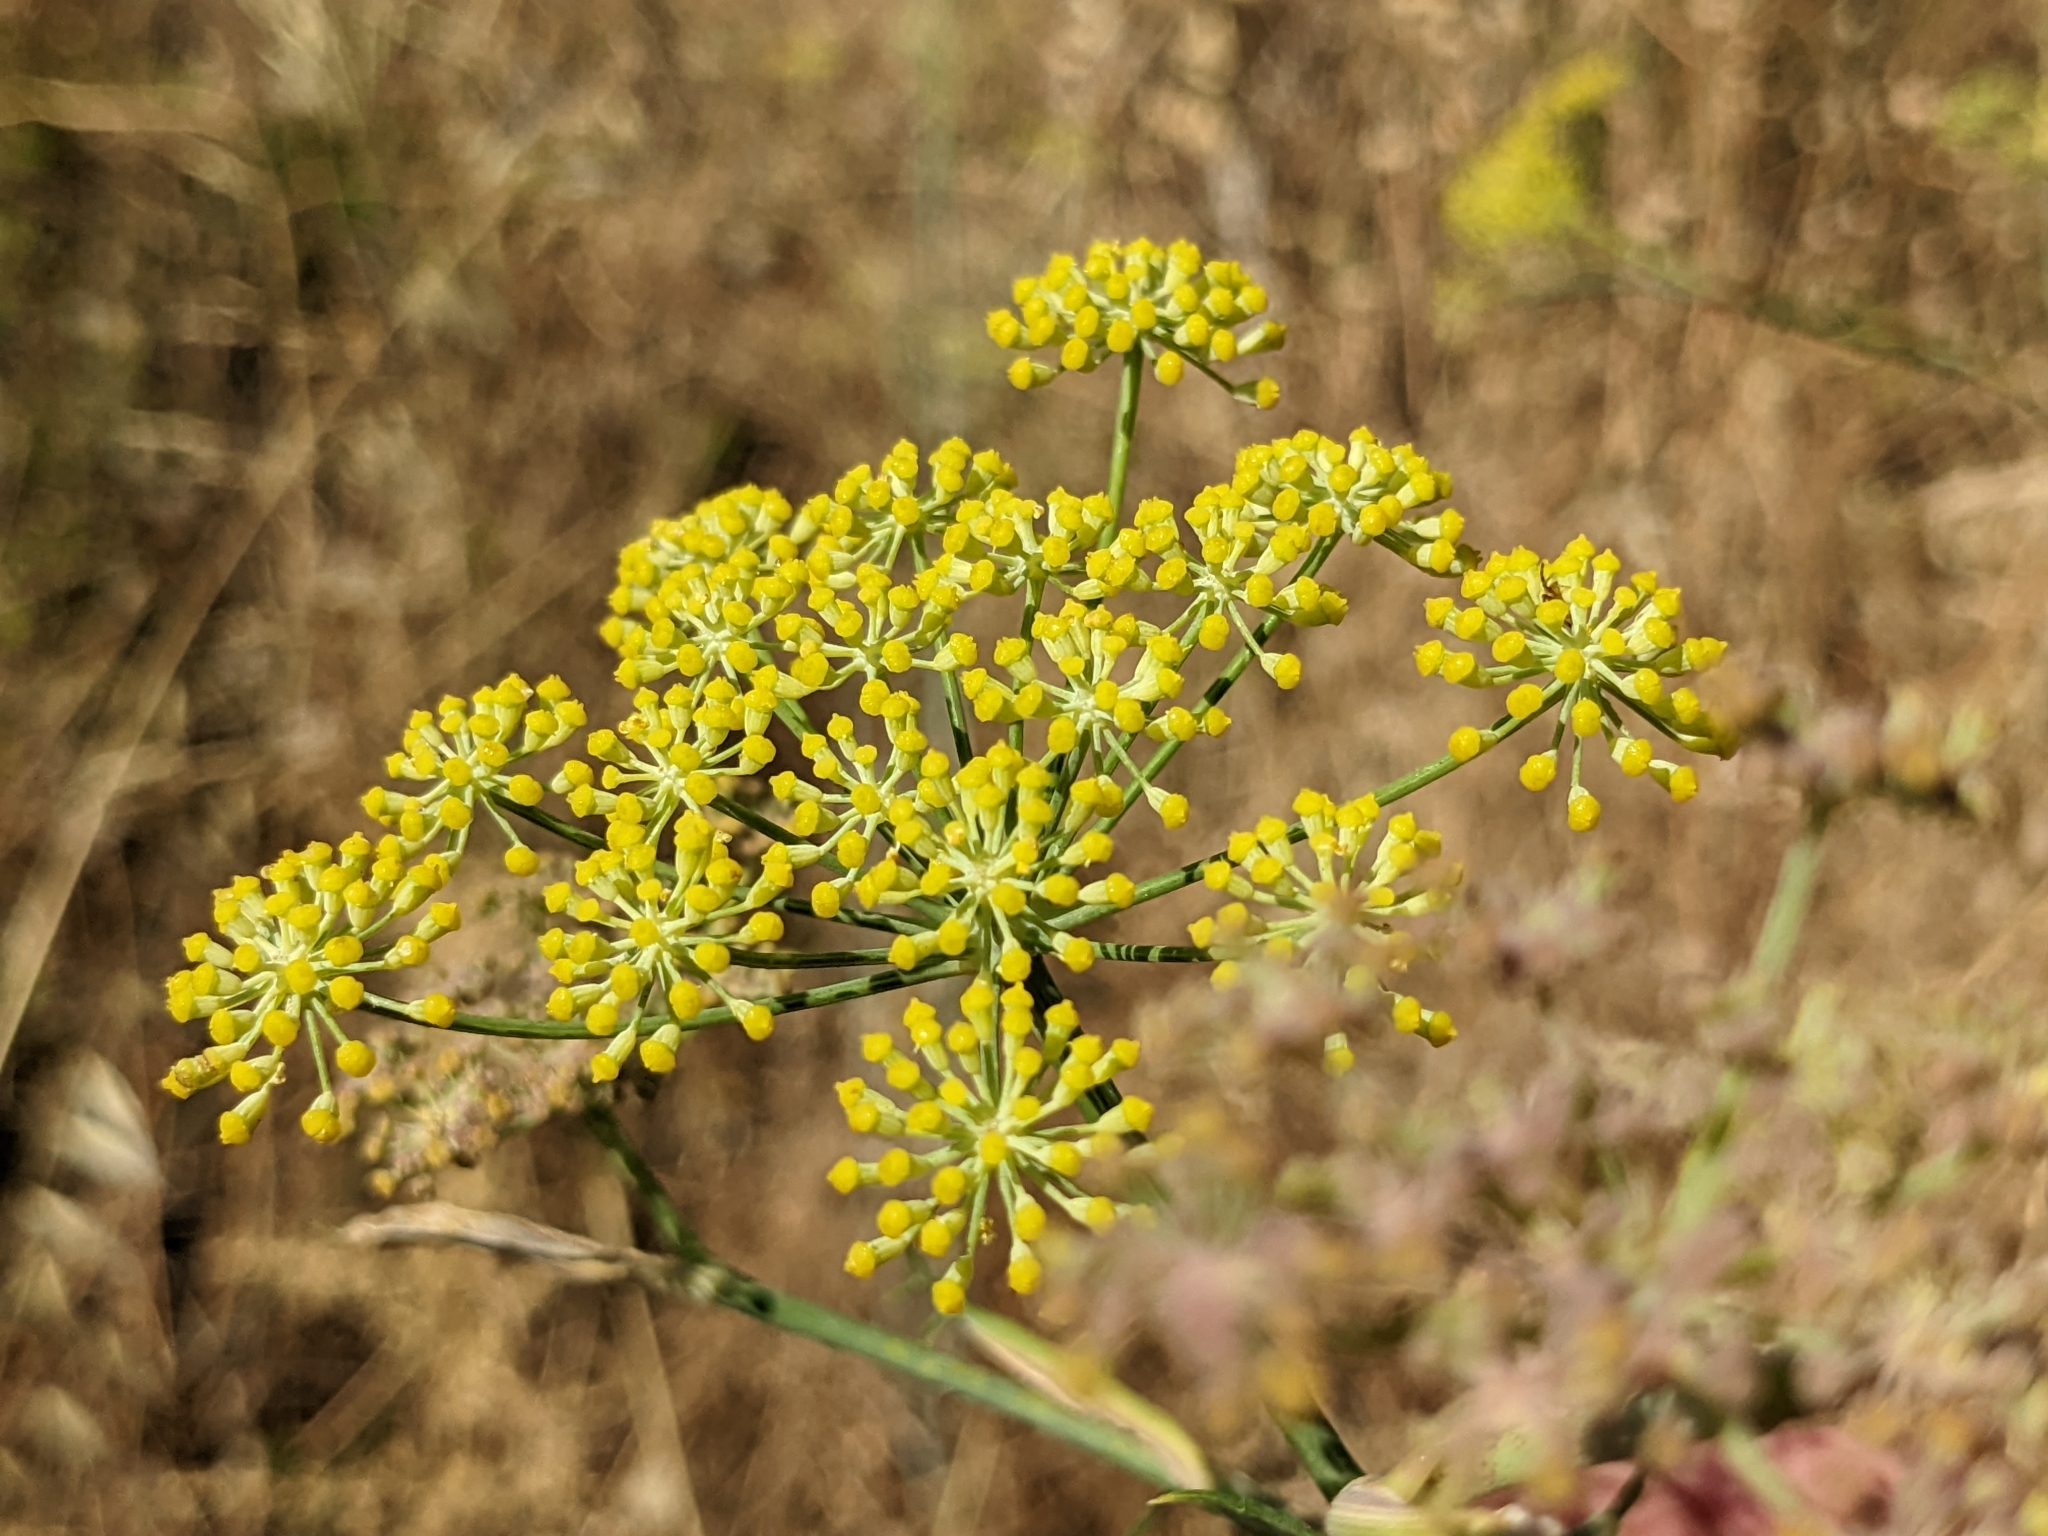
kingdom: Plantae
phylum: Tracheophyta
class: Magnoliopsida
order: Apiales
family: Apiaceae
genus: Foeniculum
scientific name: Foeniculum vulgare
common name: Fennel
